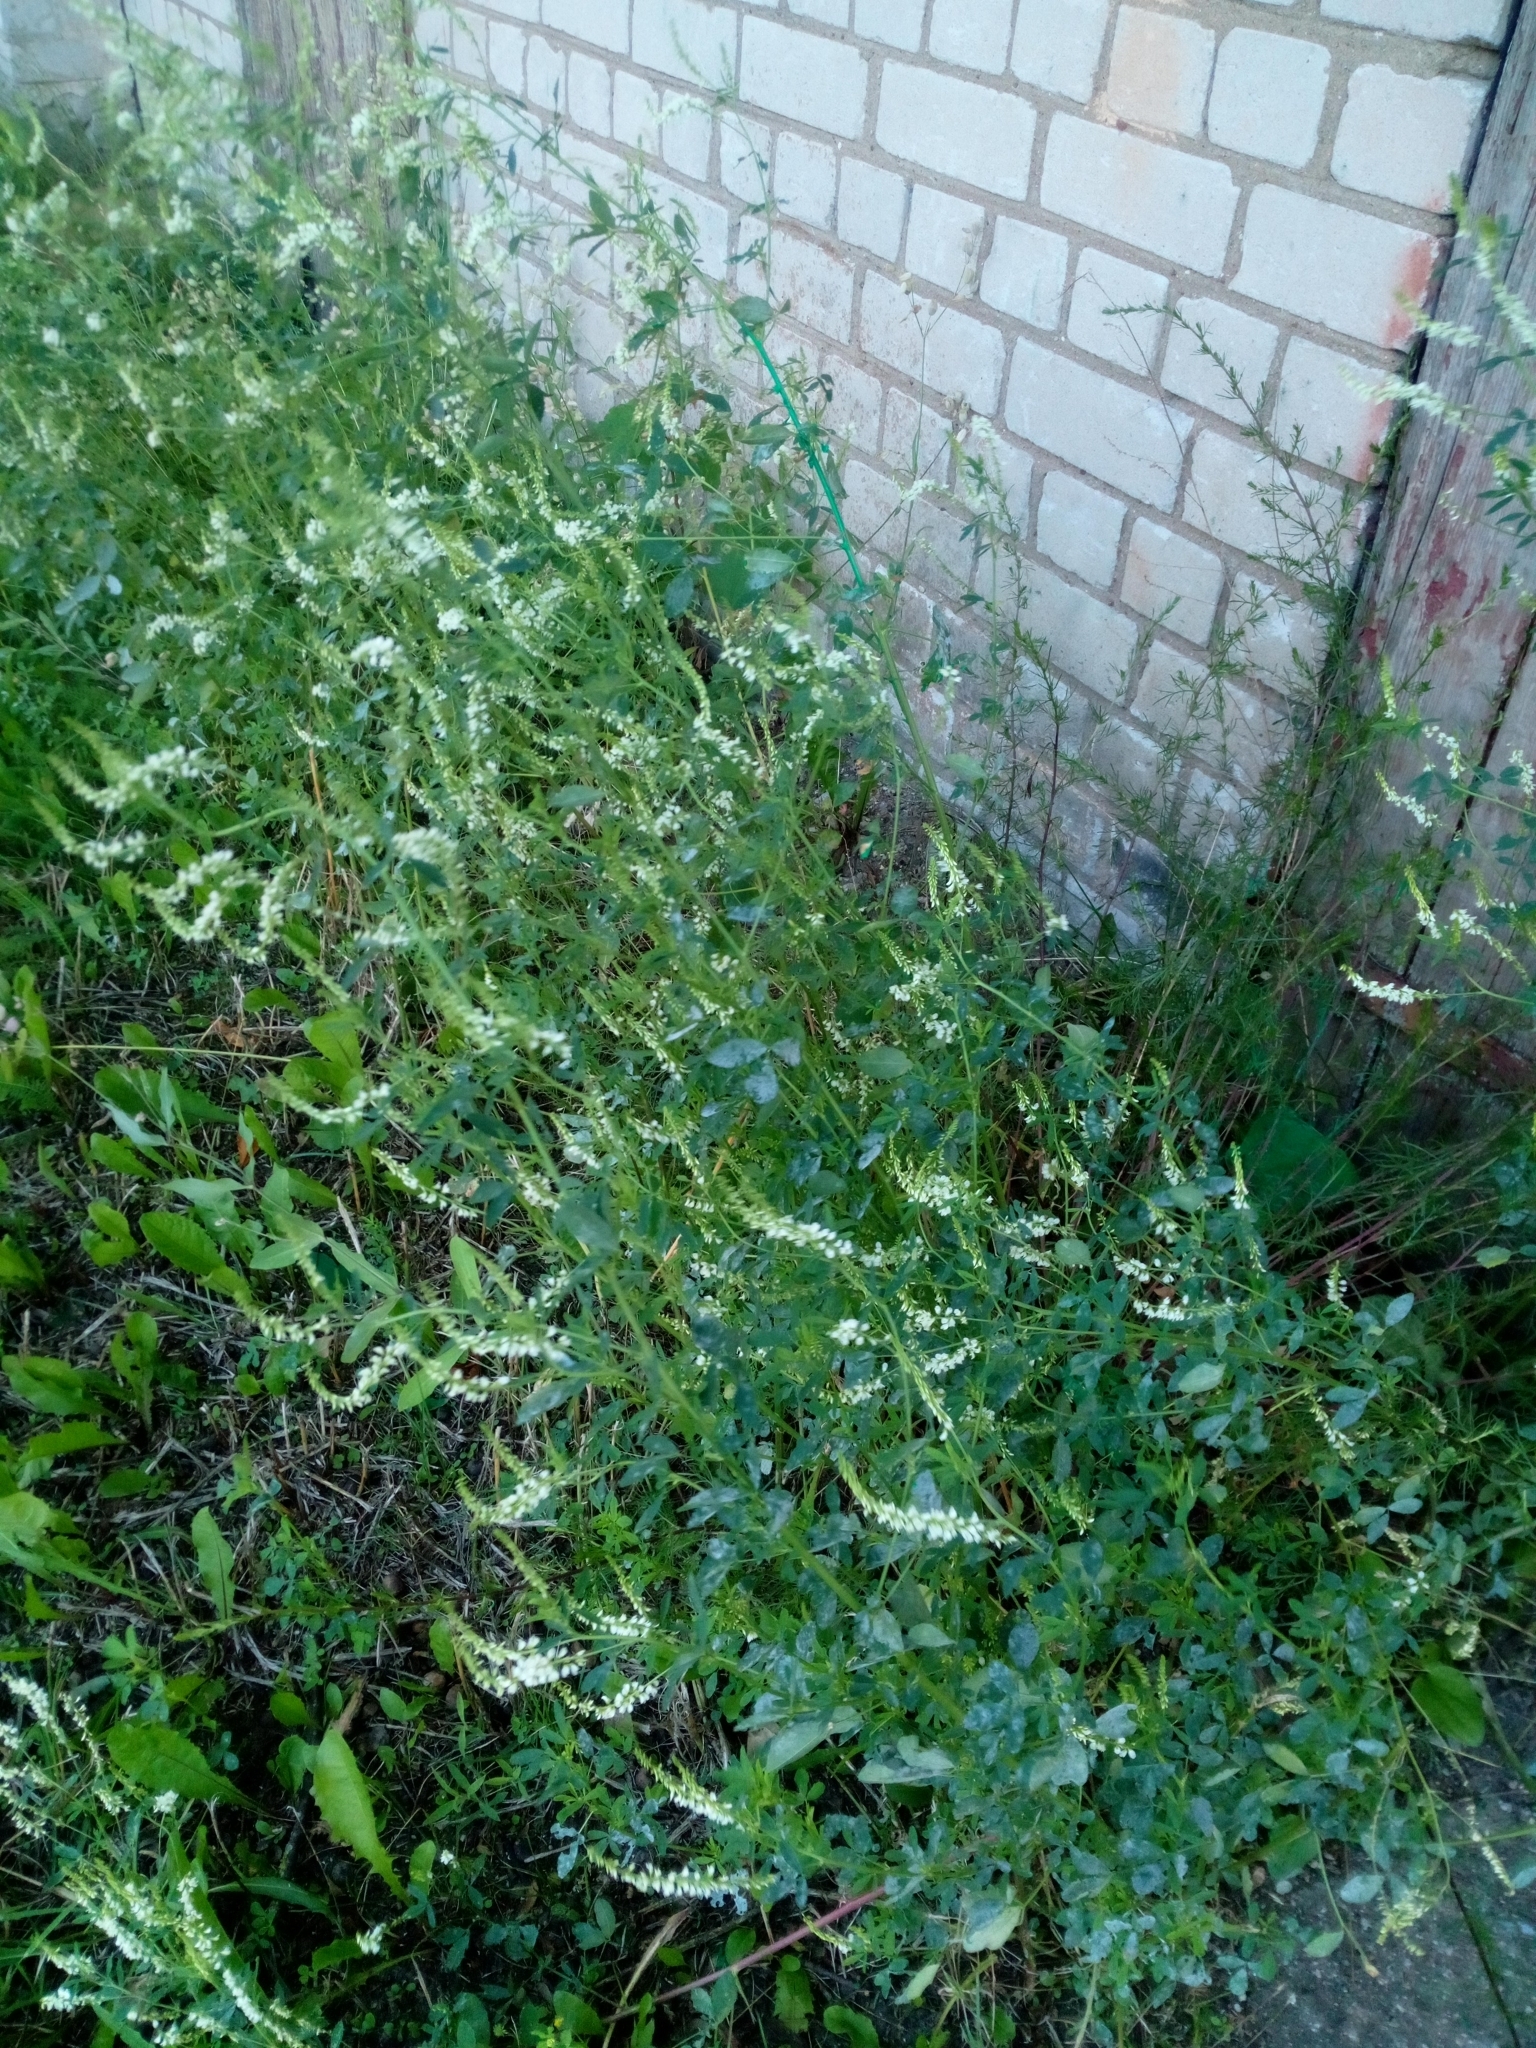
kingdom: Plantae
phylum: Tracheophyta
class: Magnoliopsida
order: Fabales
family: Fabaceae
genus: Melilotus
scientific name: Melilotus albus
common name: White melilot
